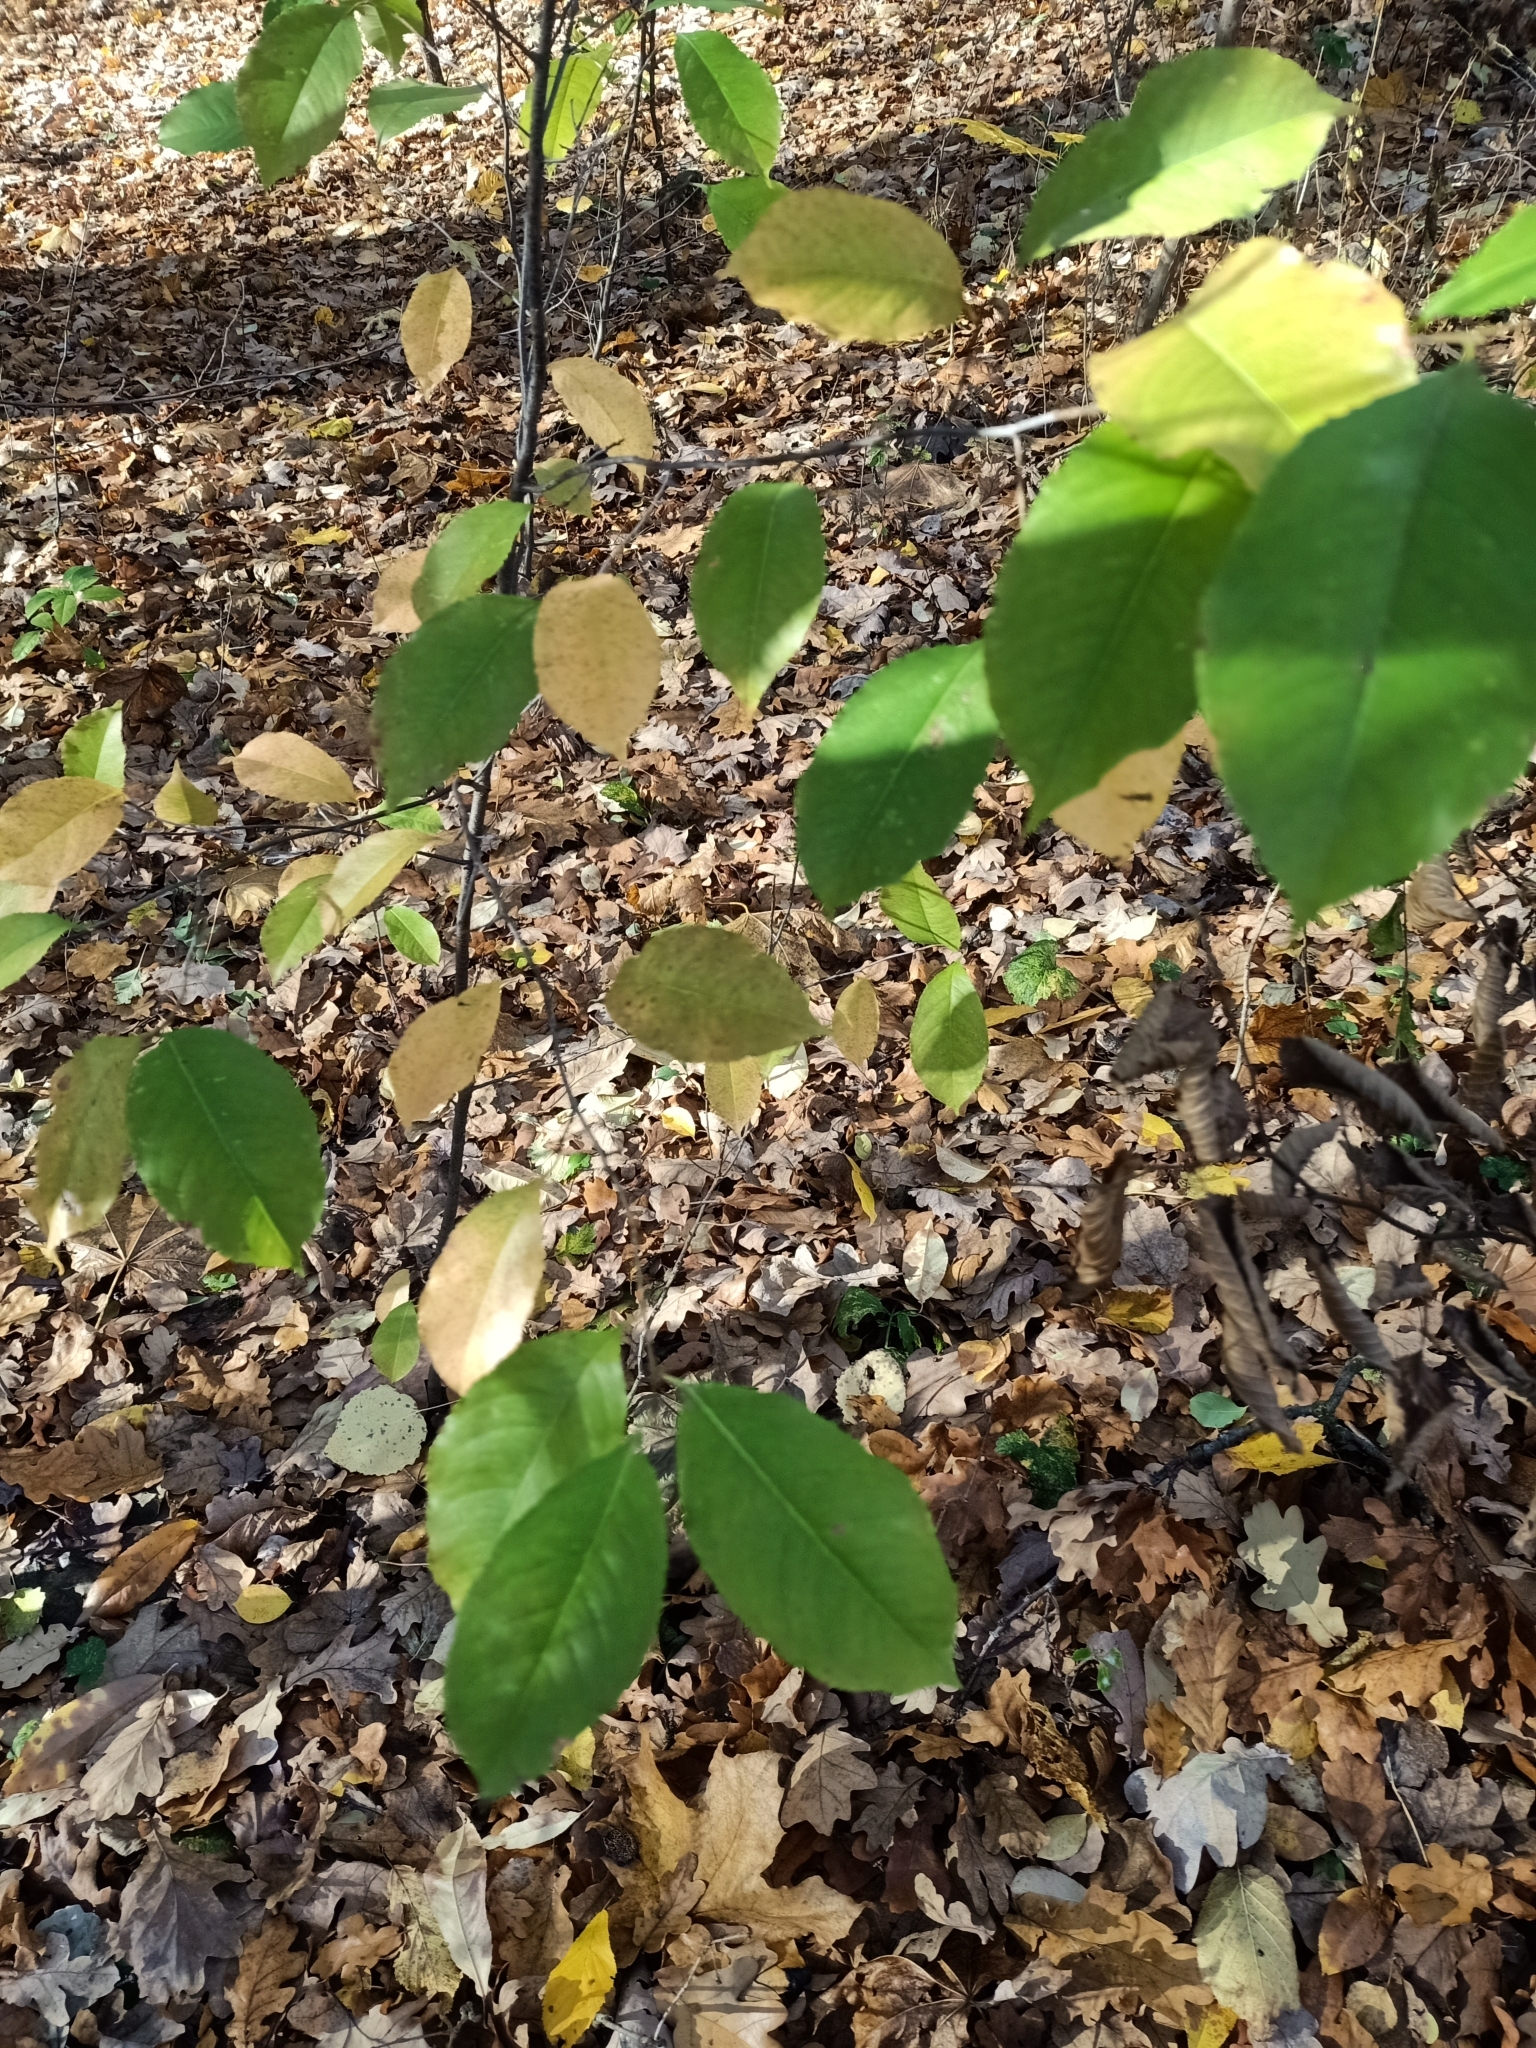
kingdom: Plantae
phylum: Tracheophyta
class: Magnoliopsida
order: Rosales
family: Rosaceae
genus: Prunus
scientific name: Prunus serotina
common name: Black cherry
